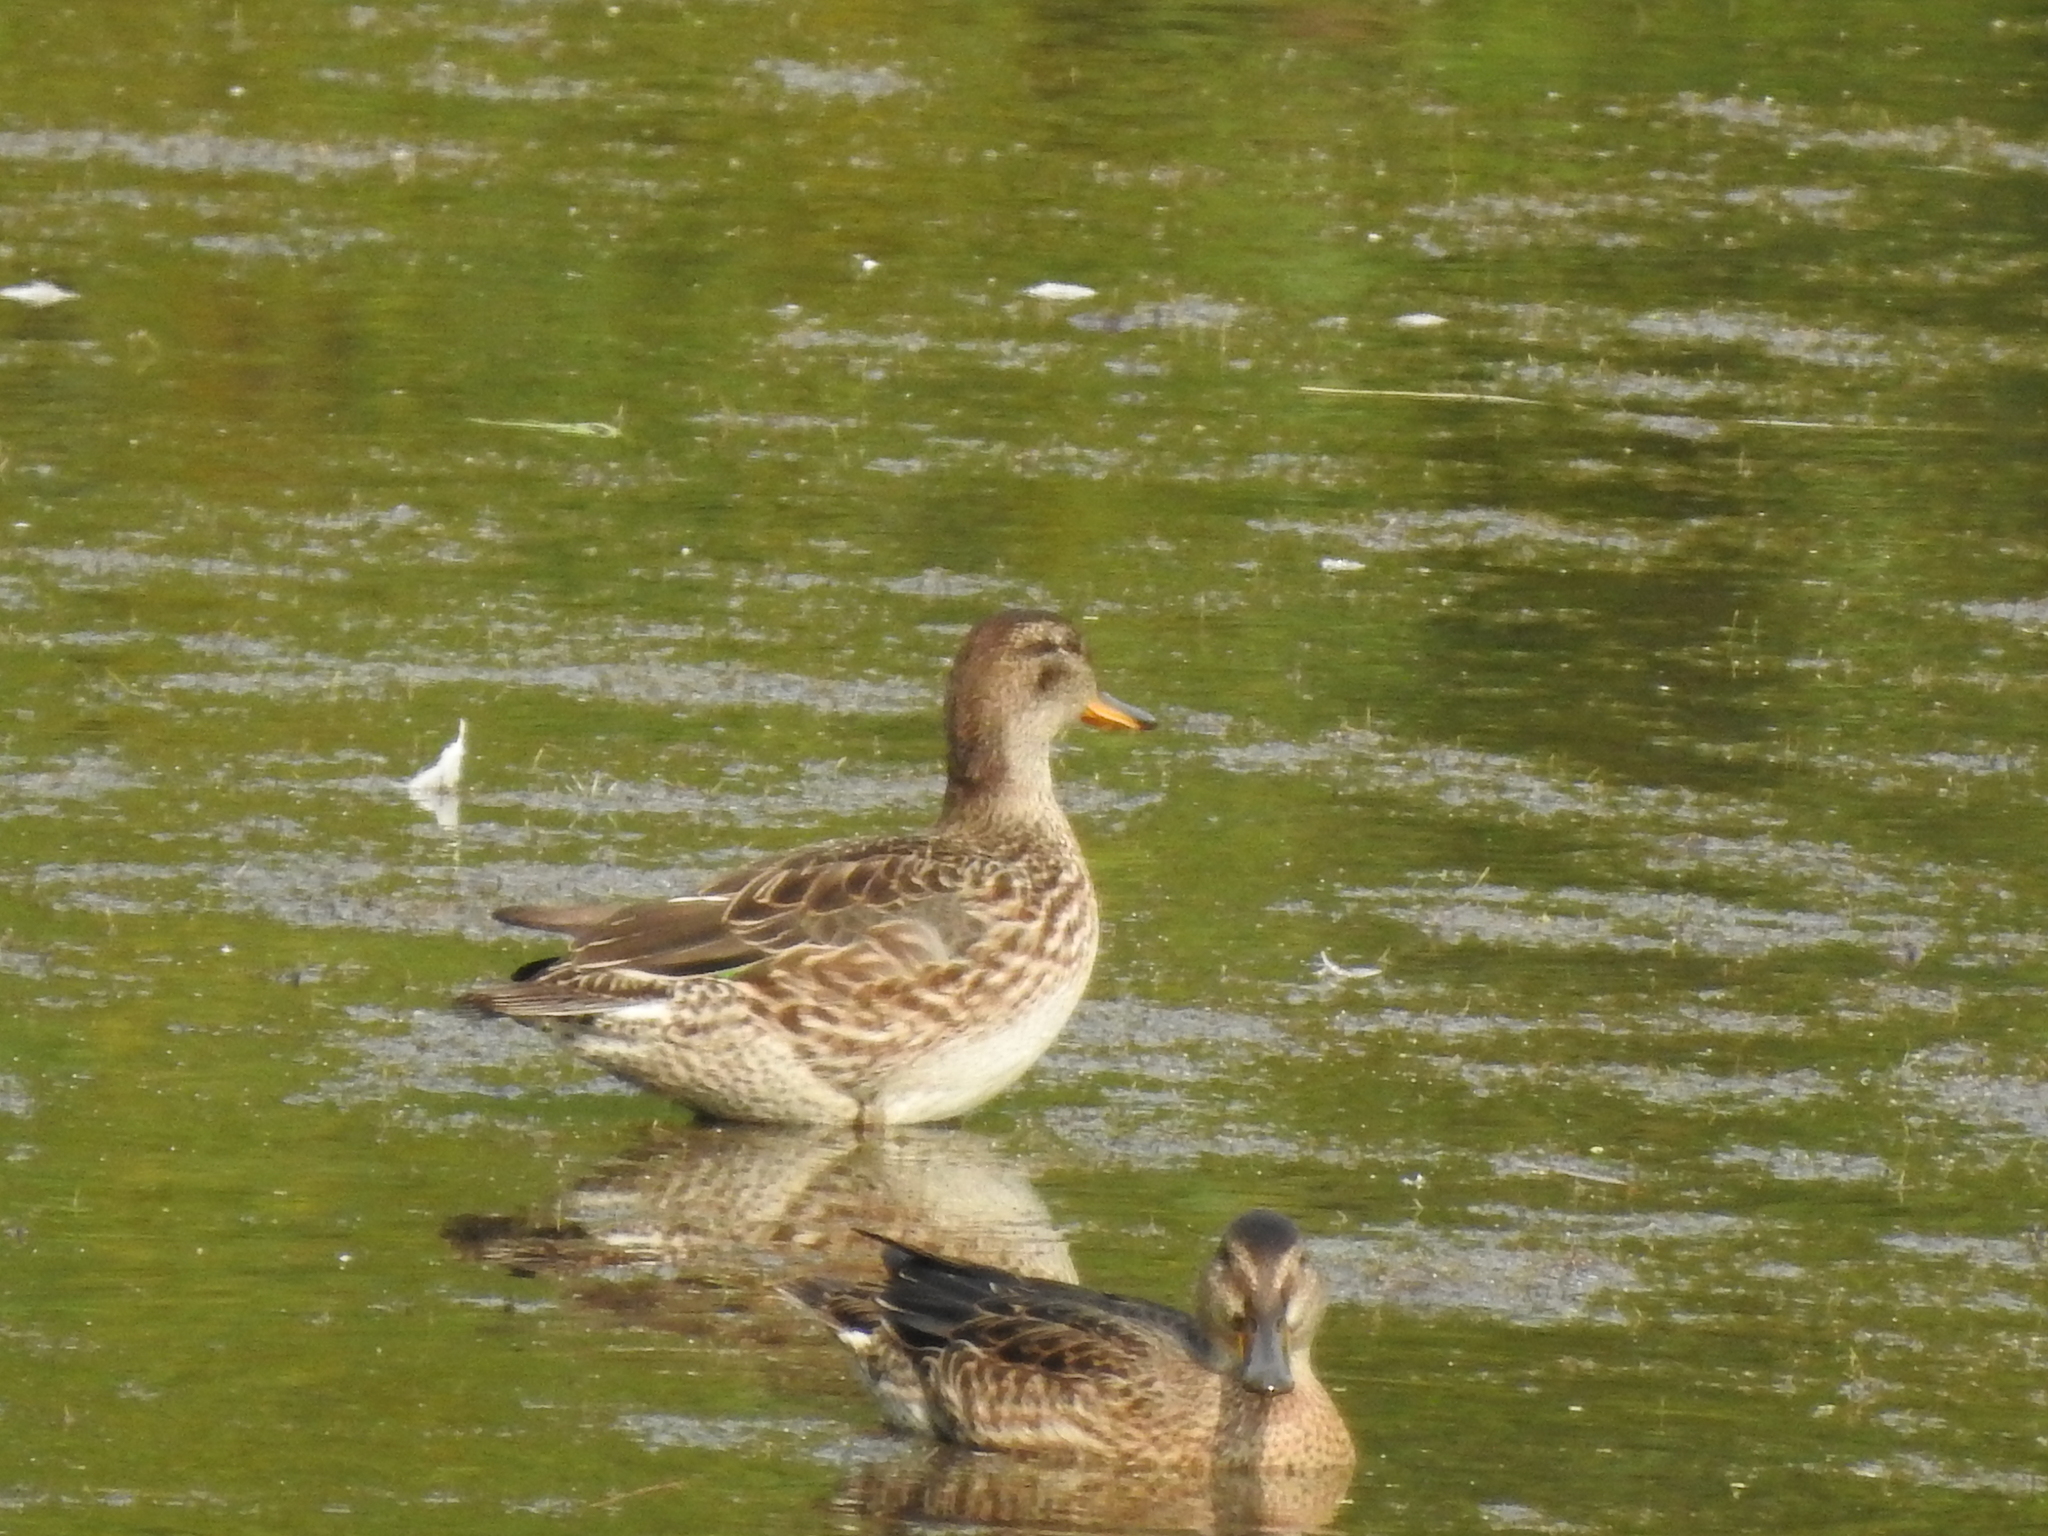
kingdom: Animalia
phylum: Chordata
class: Aves
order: Anseriformes
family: Anatidae
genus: Anas
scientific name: Anas crecca
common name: Eurasian teal
